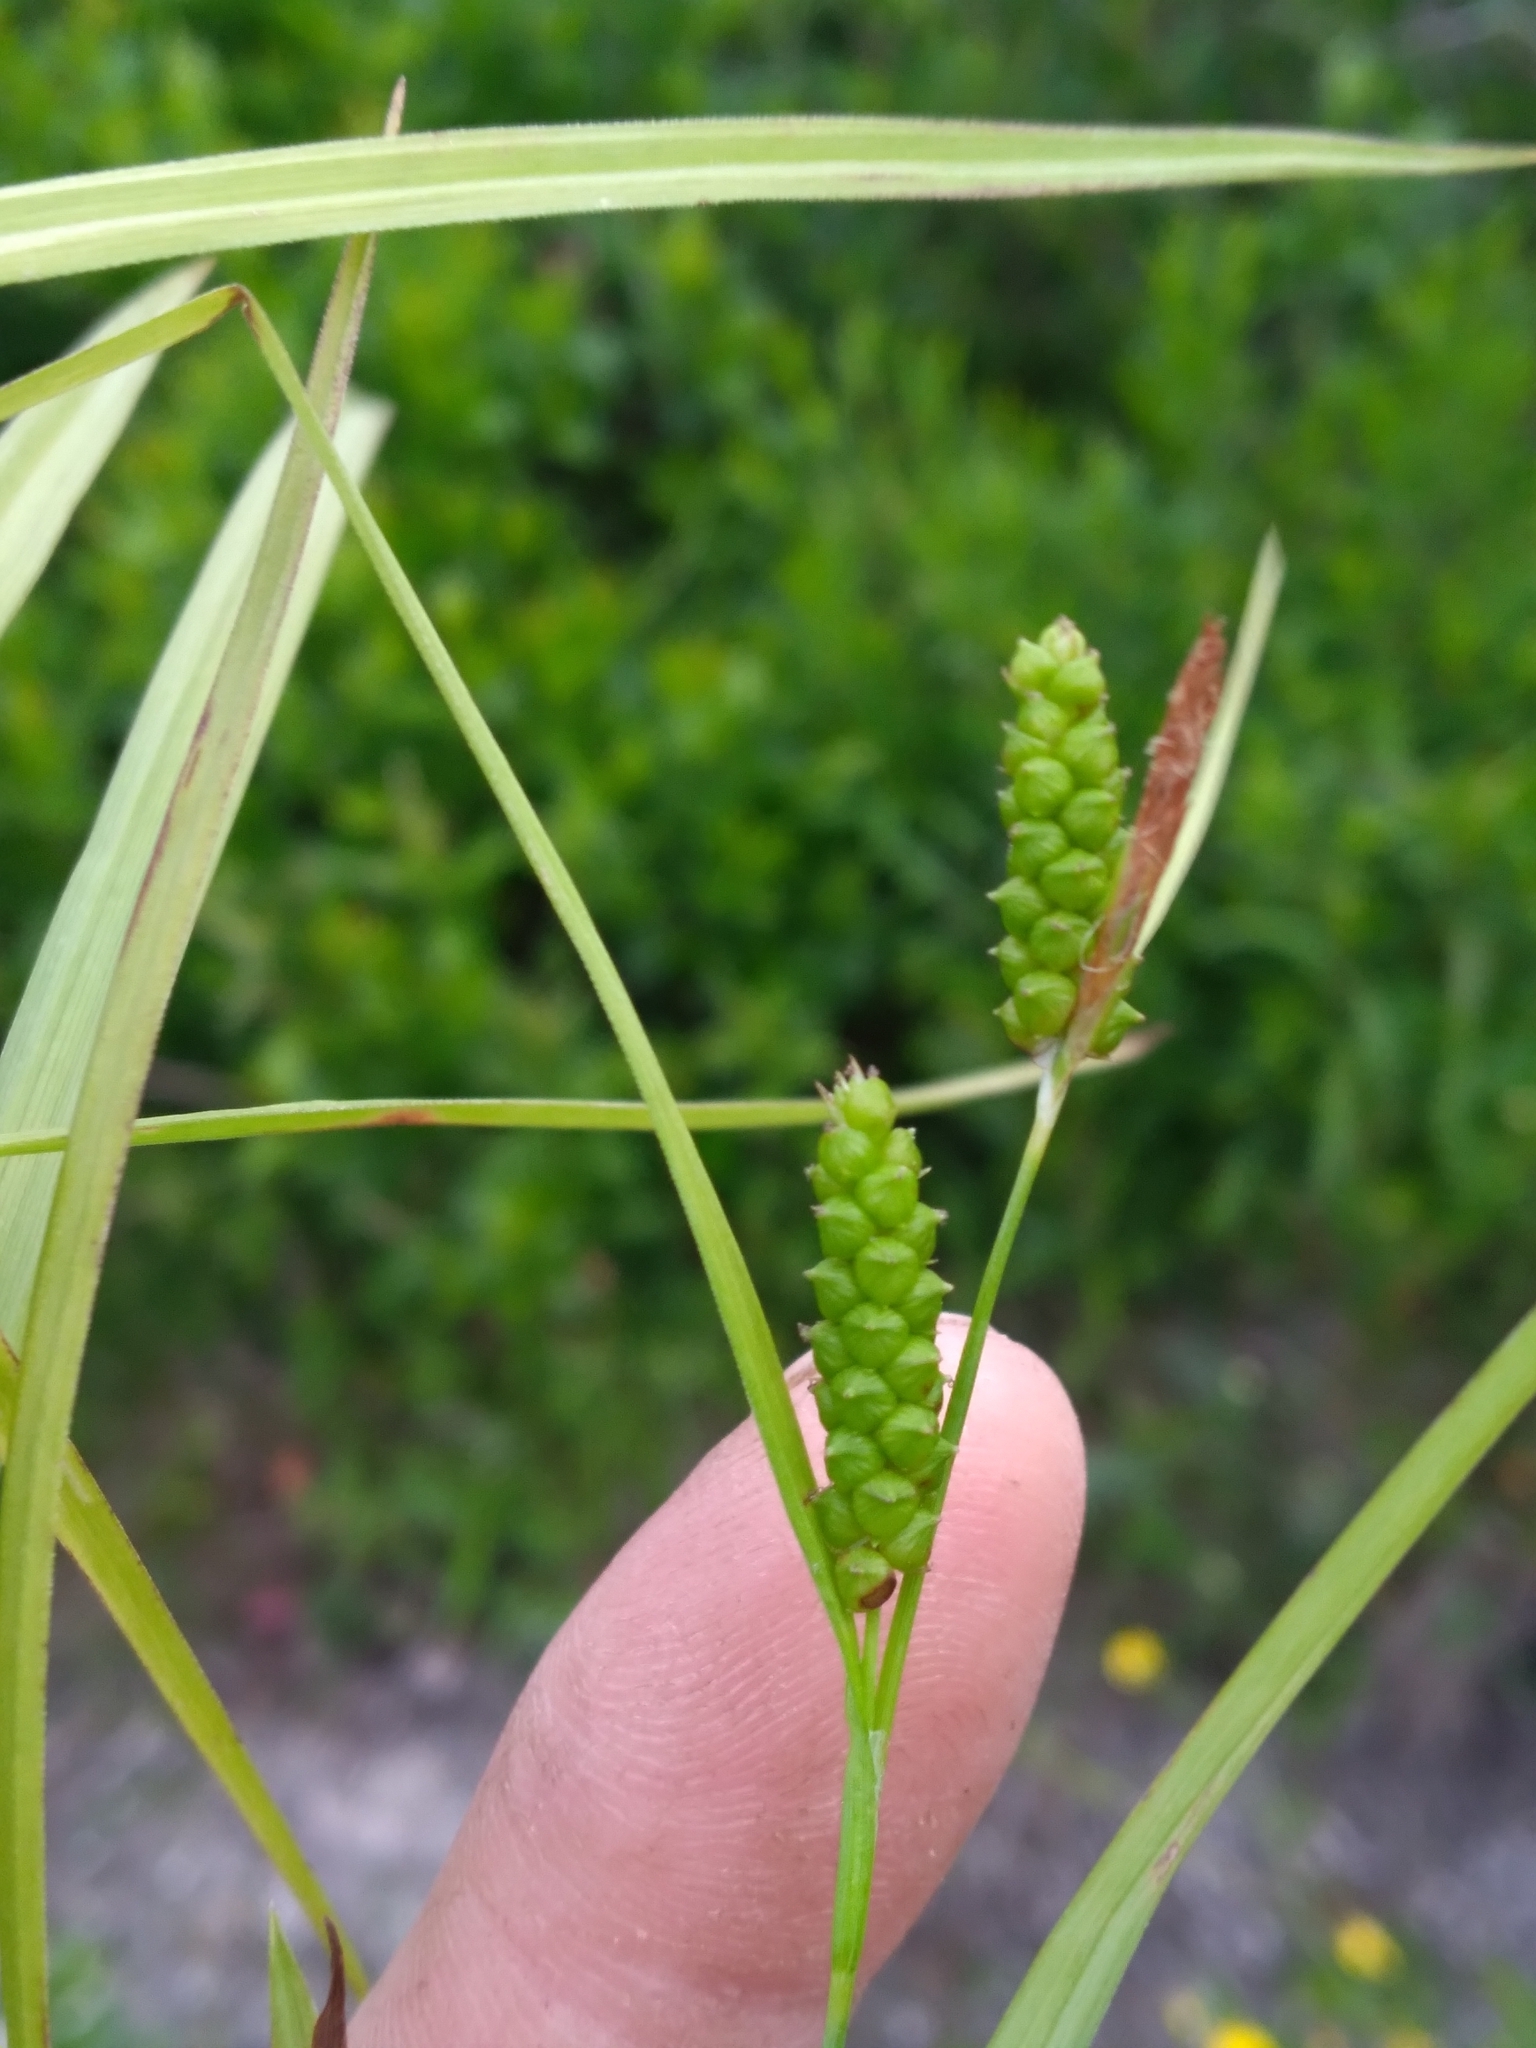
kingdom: Plantae
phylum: Tracheophyta
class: Liliopsida
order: Poales
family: Cyperaceae
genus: Carex
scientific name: Carex granularis
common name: Granular sedge
